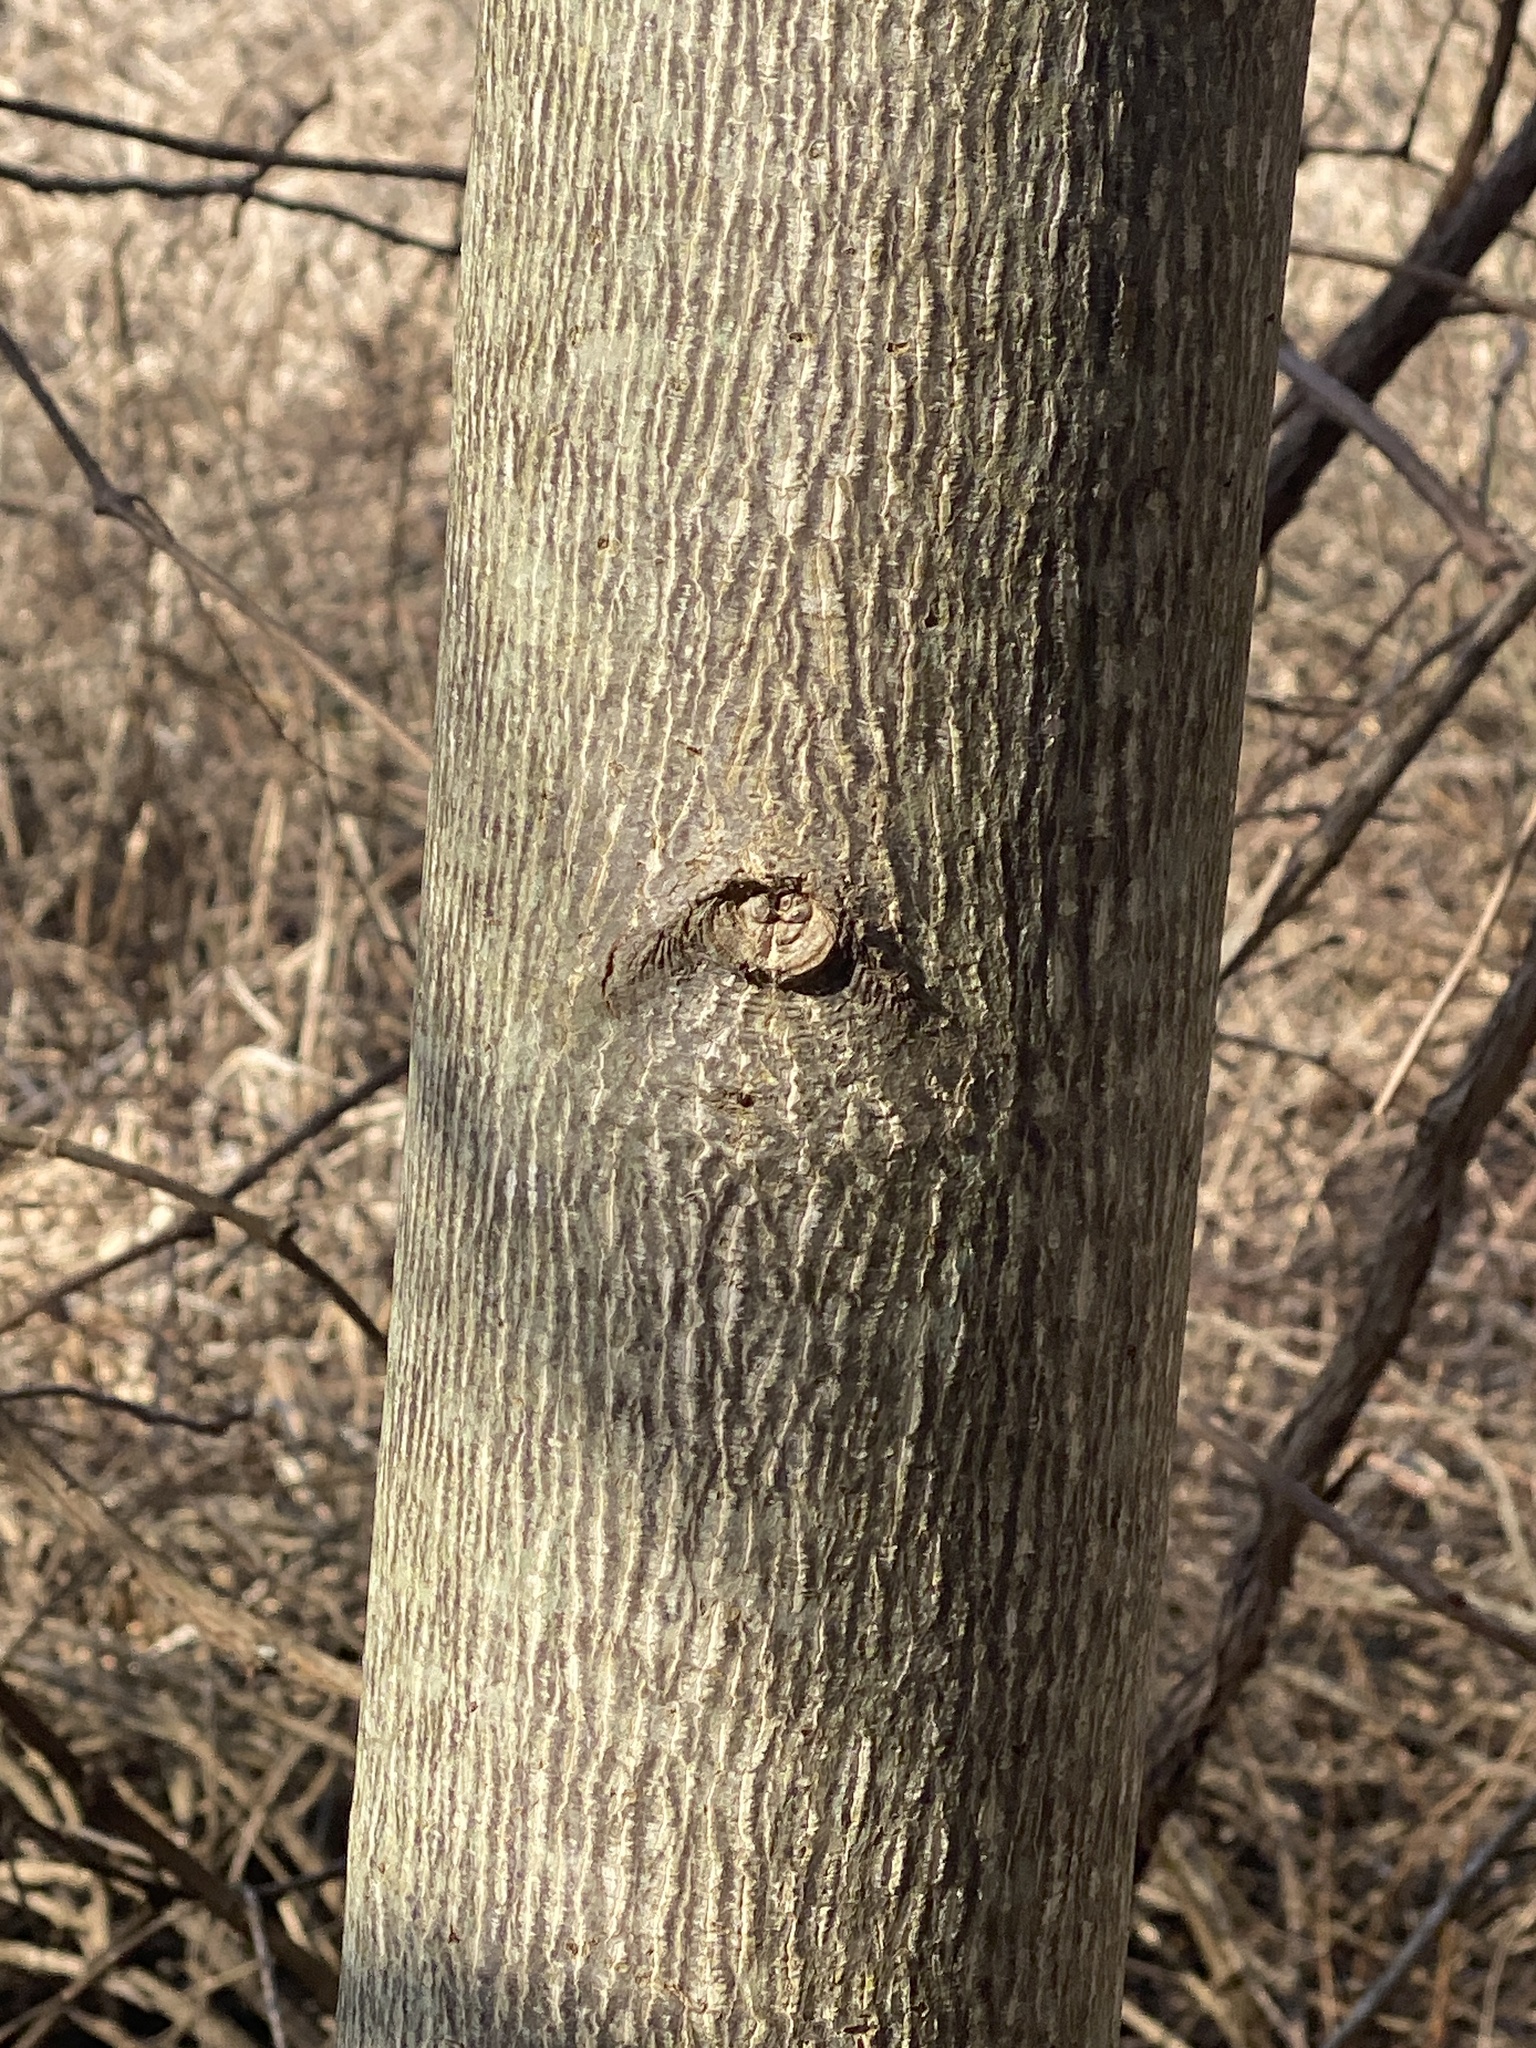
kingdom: Plantae
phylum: Tracheophyta
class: Magnoliopsida
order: Magnoliales
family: Magnoliaceae
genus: Liriodendron
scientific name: Liriodendron tulipifera
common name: Tulip tree
